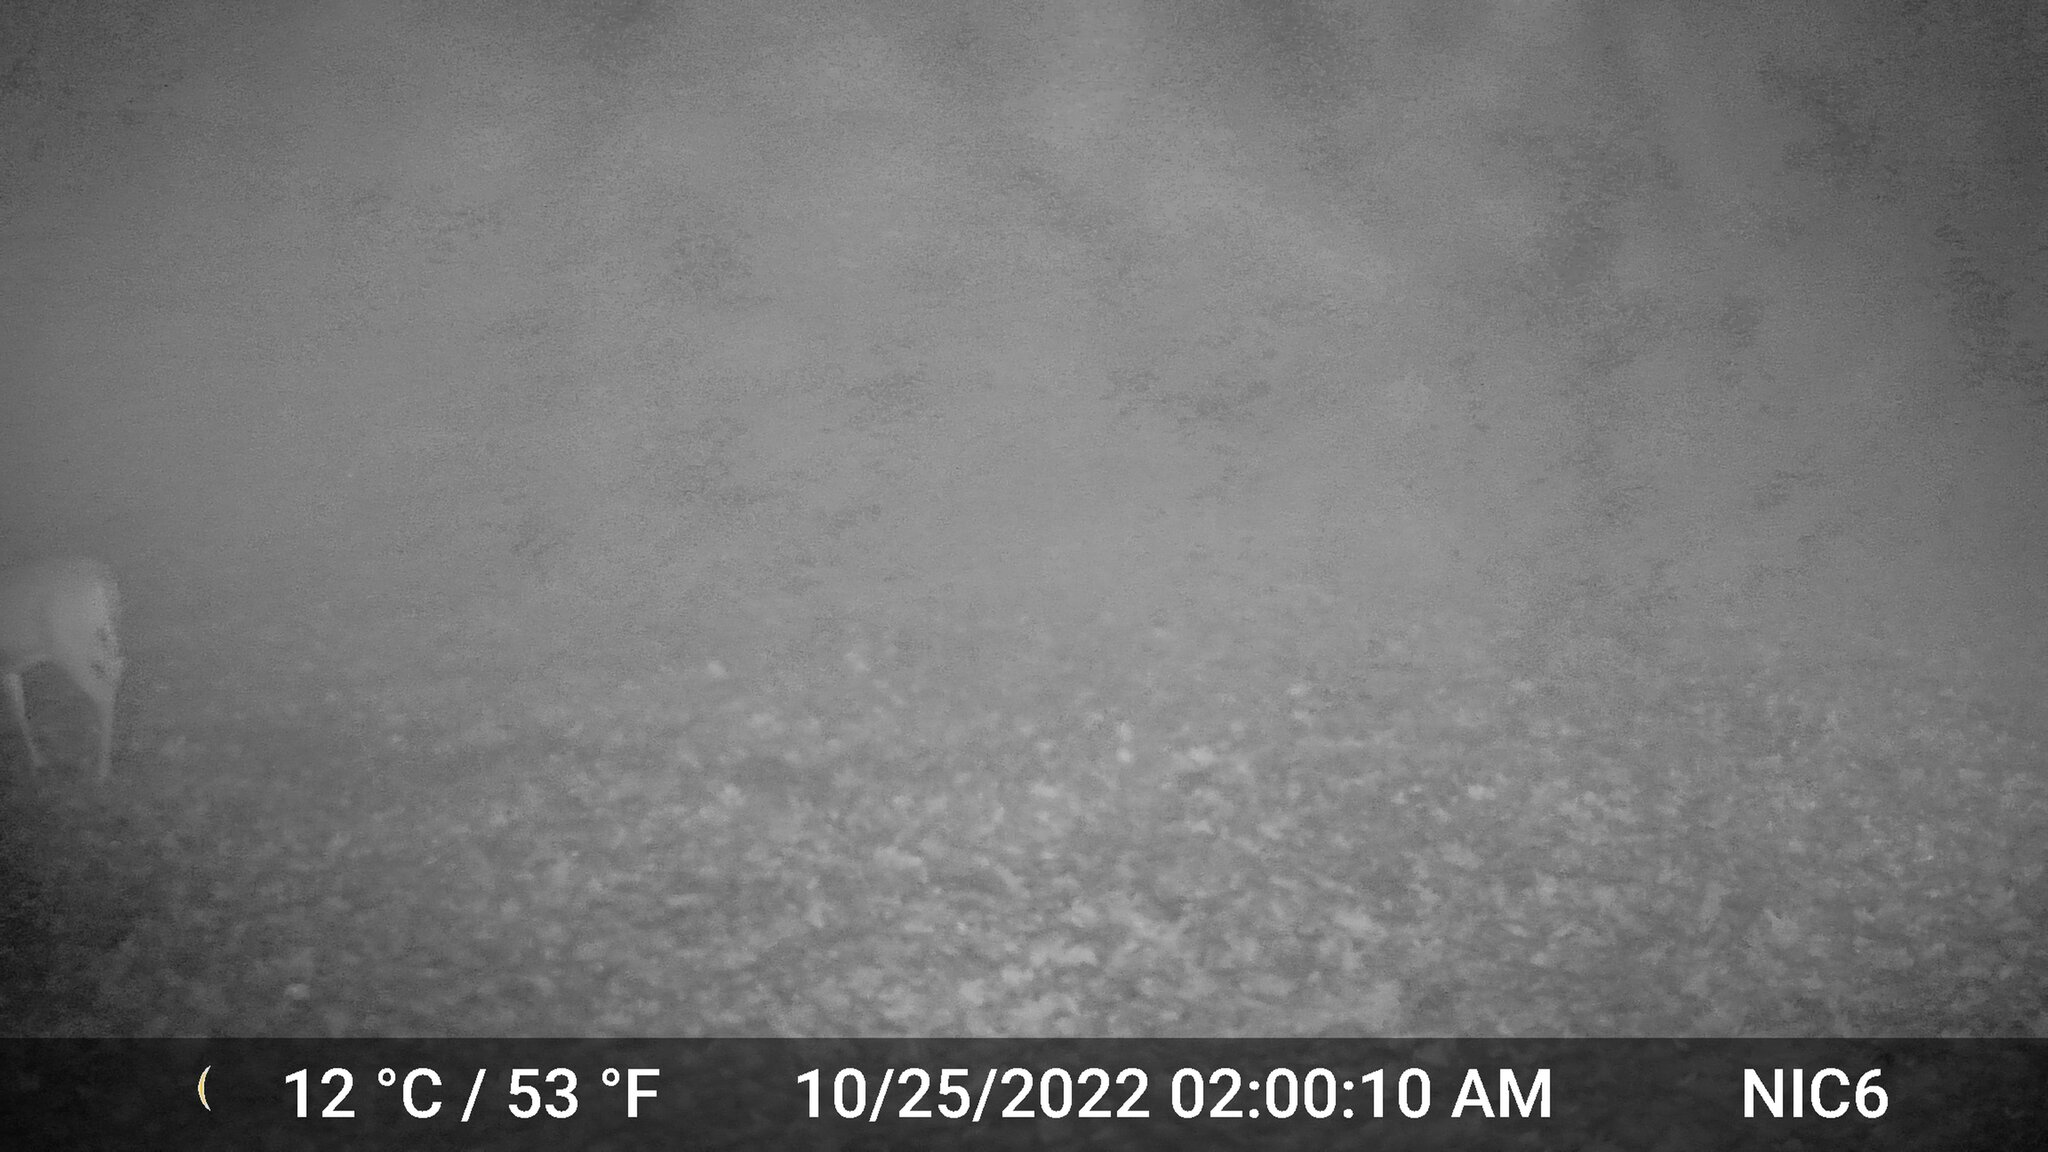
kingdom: Animalia
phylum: Chordata
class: Mammalia
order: Artiodactyla
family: Cervidae
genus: Odocoileus
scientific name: Odocoileus virginianus
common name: White-tailed deer
